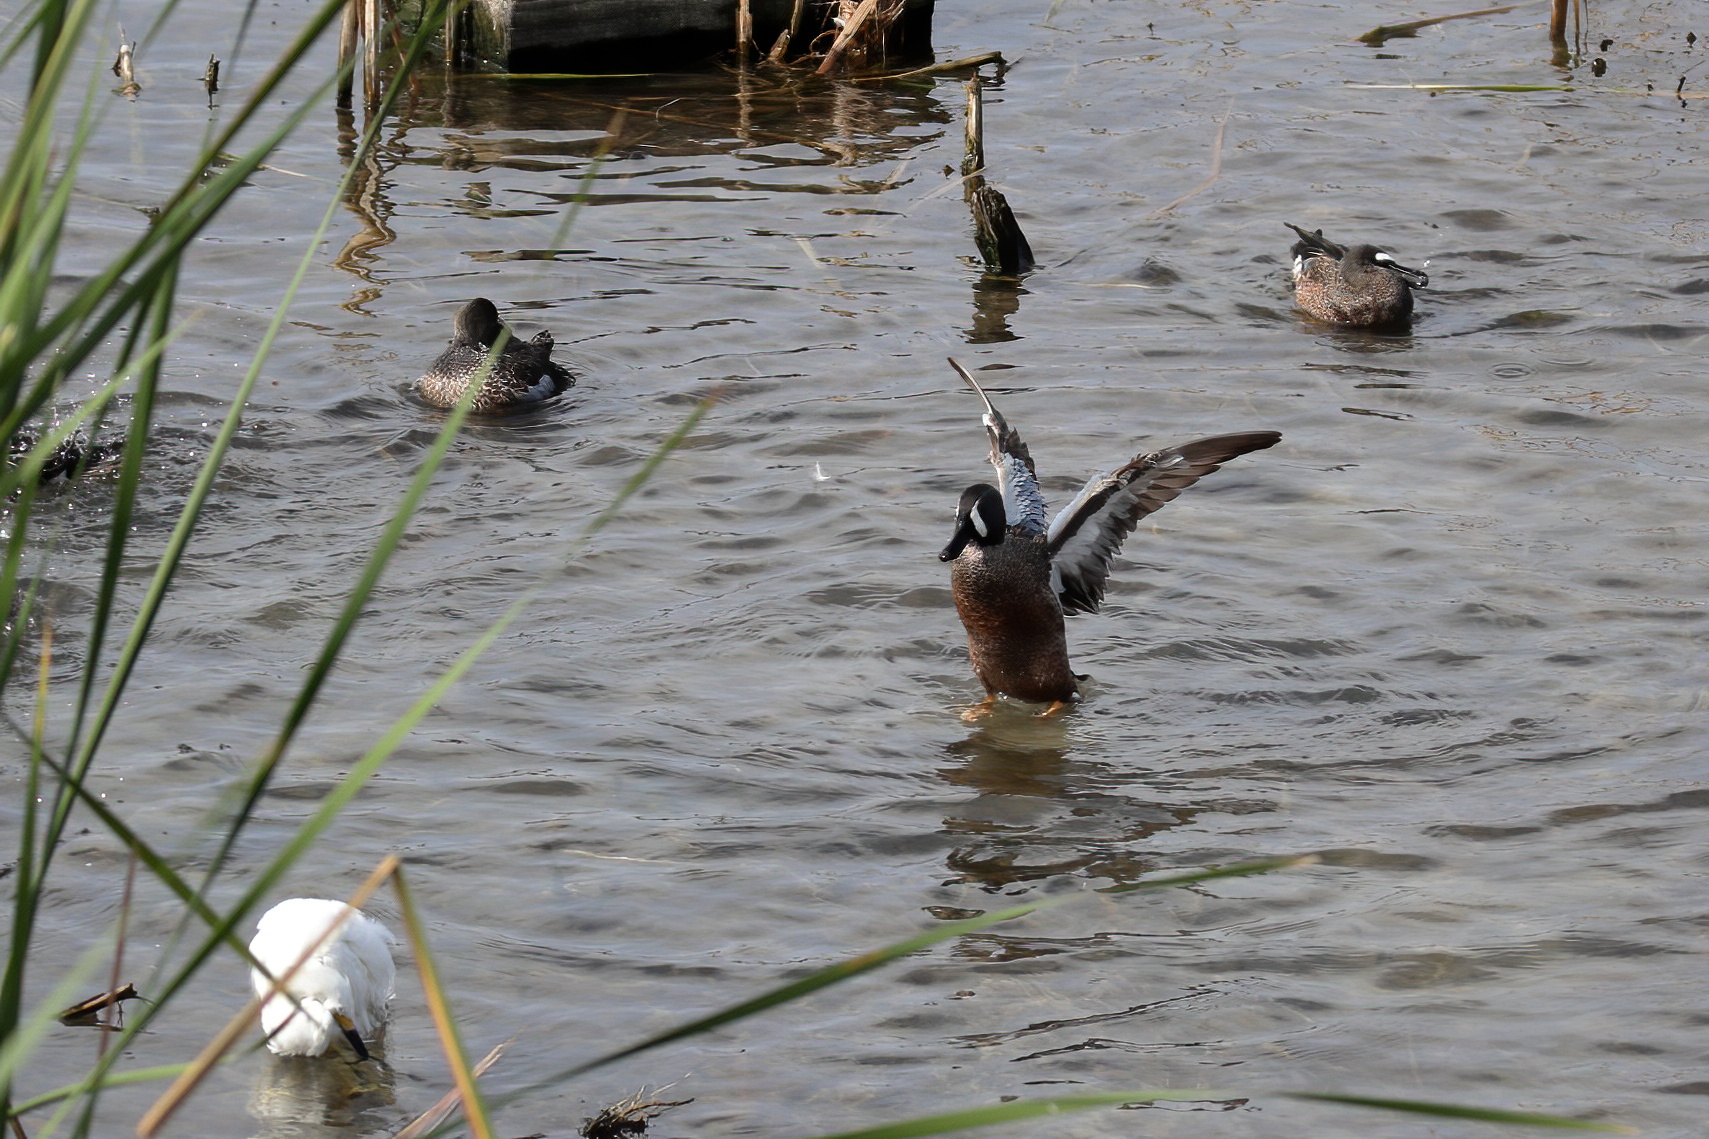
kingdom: Animalia
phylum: Chordata
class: Aves
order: Anseriformes
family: Anatidae
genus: Spatula
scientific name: Spatula discors
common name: Blue-winged teal
